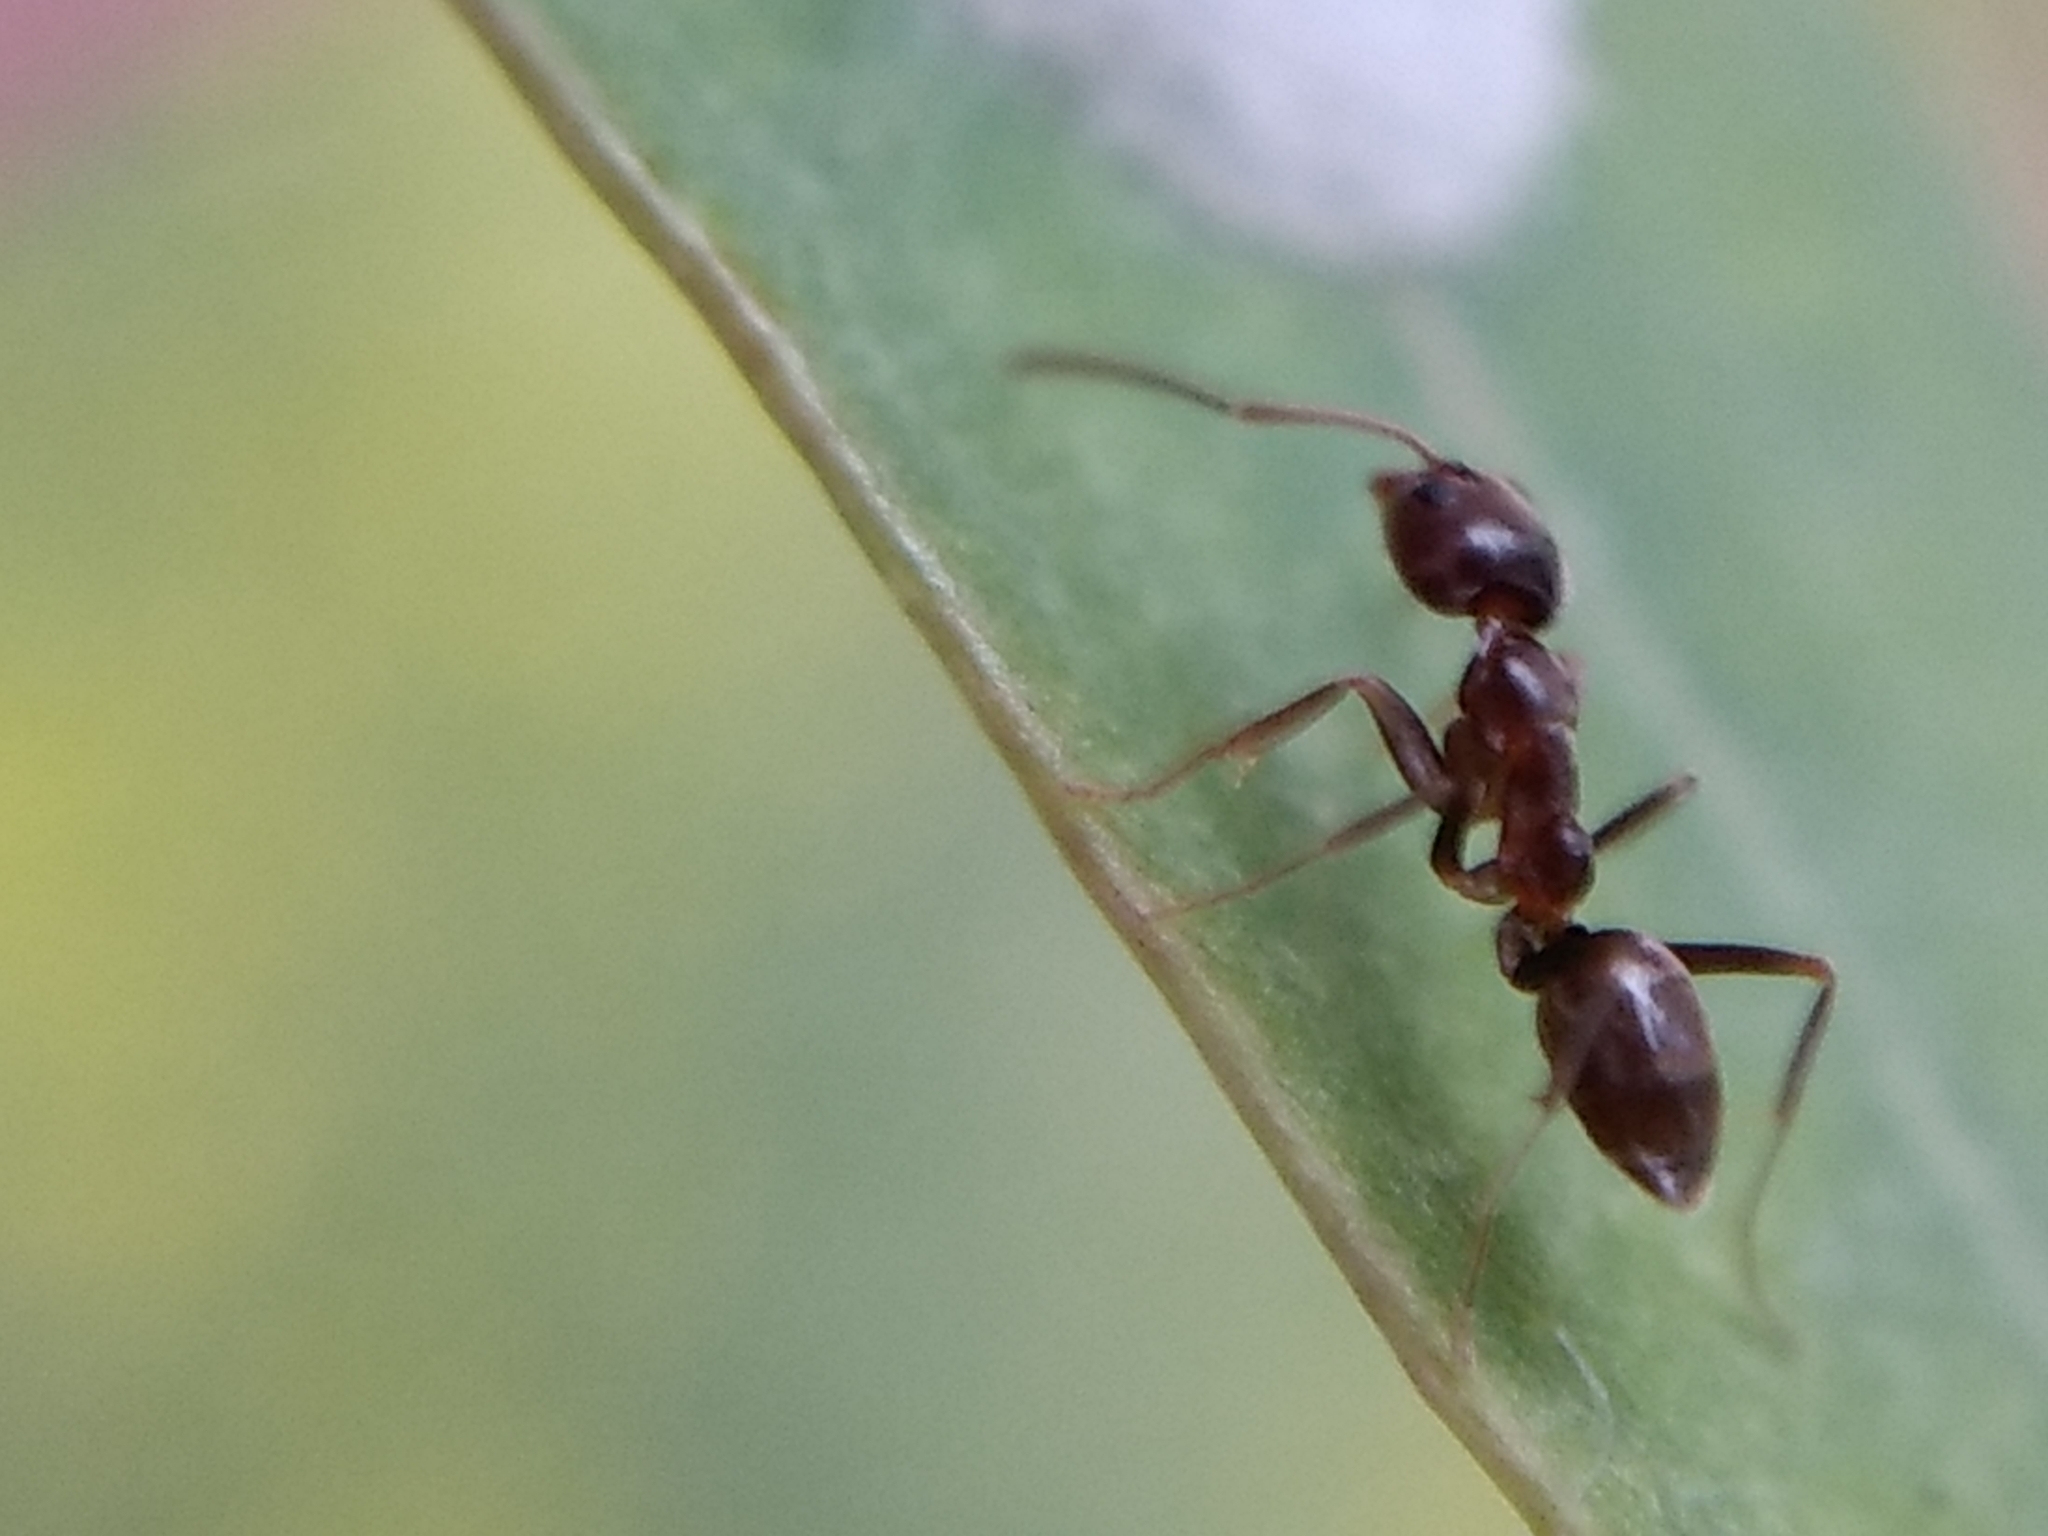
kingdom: Animalia
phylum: Arthropoda
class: Insecta
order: Hymenoptera
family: Formicidae
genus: Linepithema
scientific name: Linepithema humile
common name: Argentine ant
